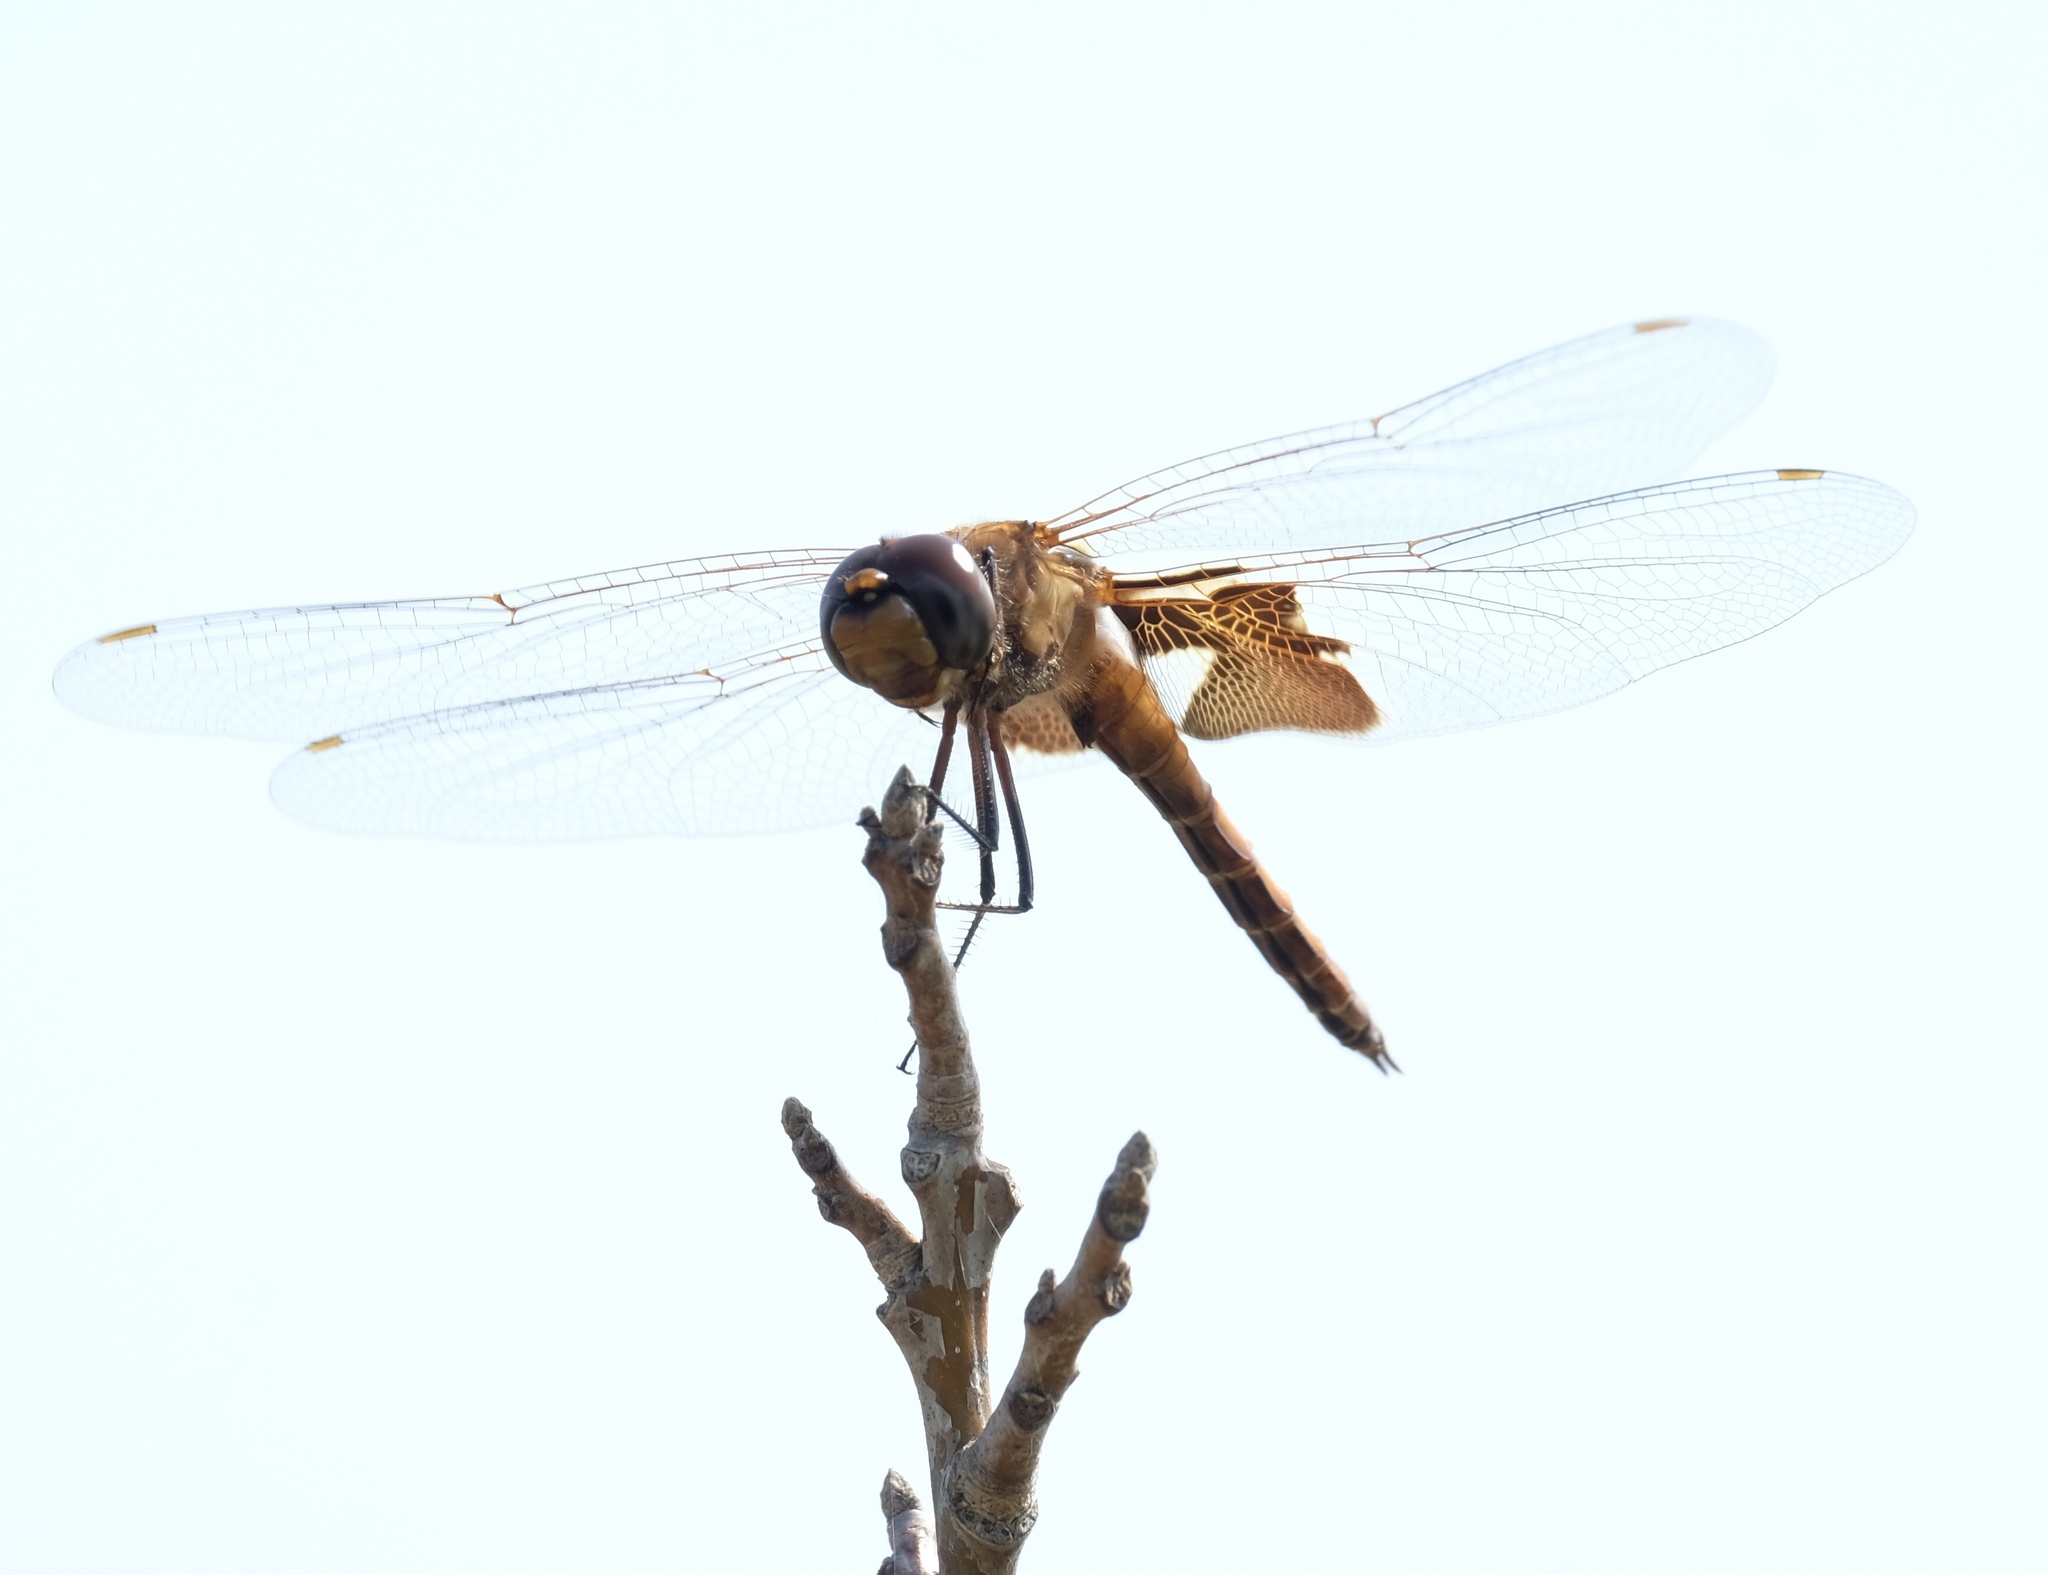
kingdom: Animalia
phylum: Arthropoda
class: Insecta
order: Odonata
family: Libellulidae
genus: Tramea
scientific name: Tramea onusta
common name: Red saddlebags
